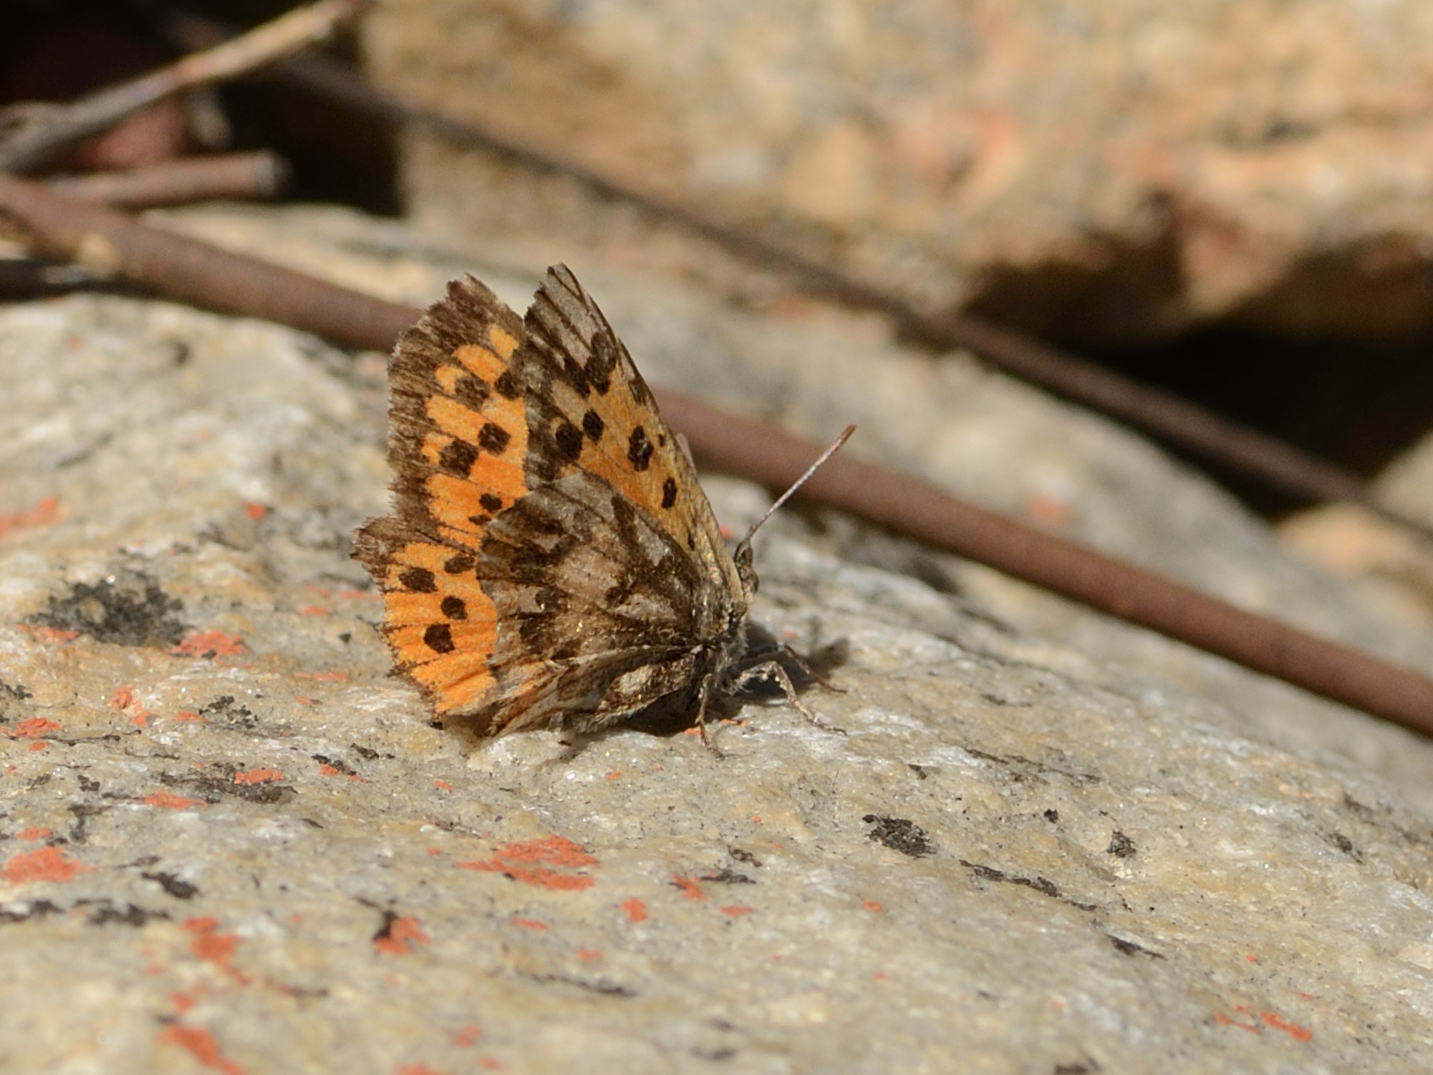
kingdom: Animalia
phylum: Arthropoda
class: Insecta
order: Lepidoptera
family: Lycaenidae
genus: Chrysoritis
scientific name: Chrysoritis
